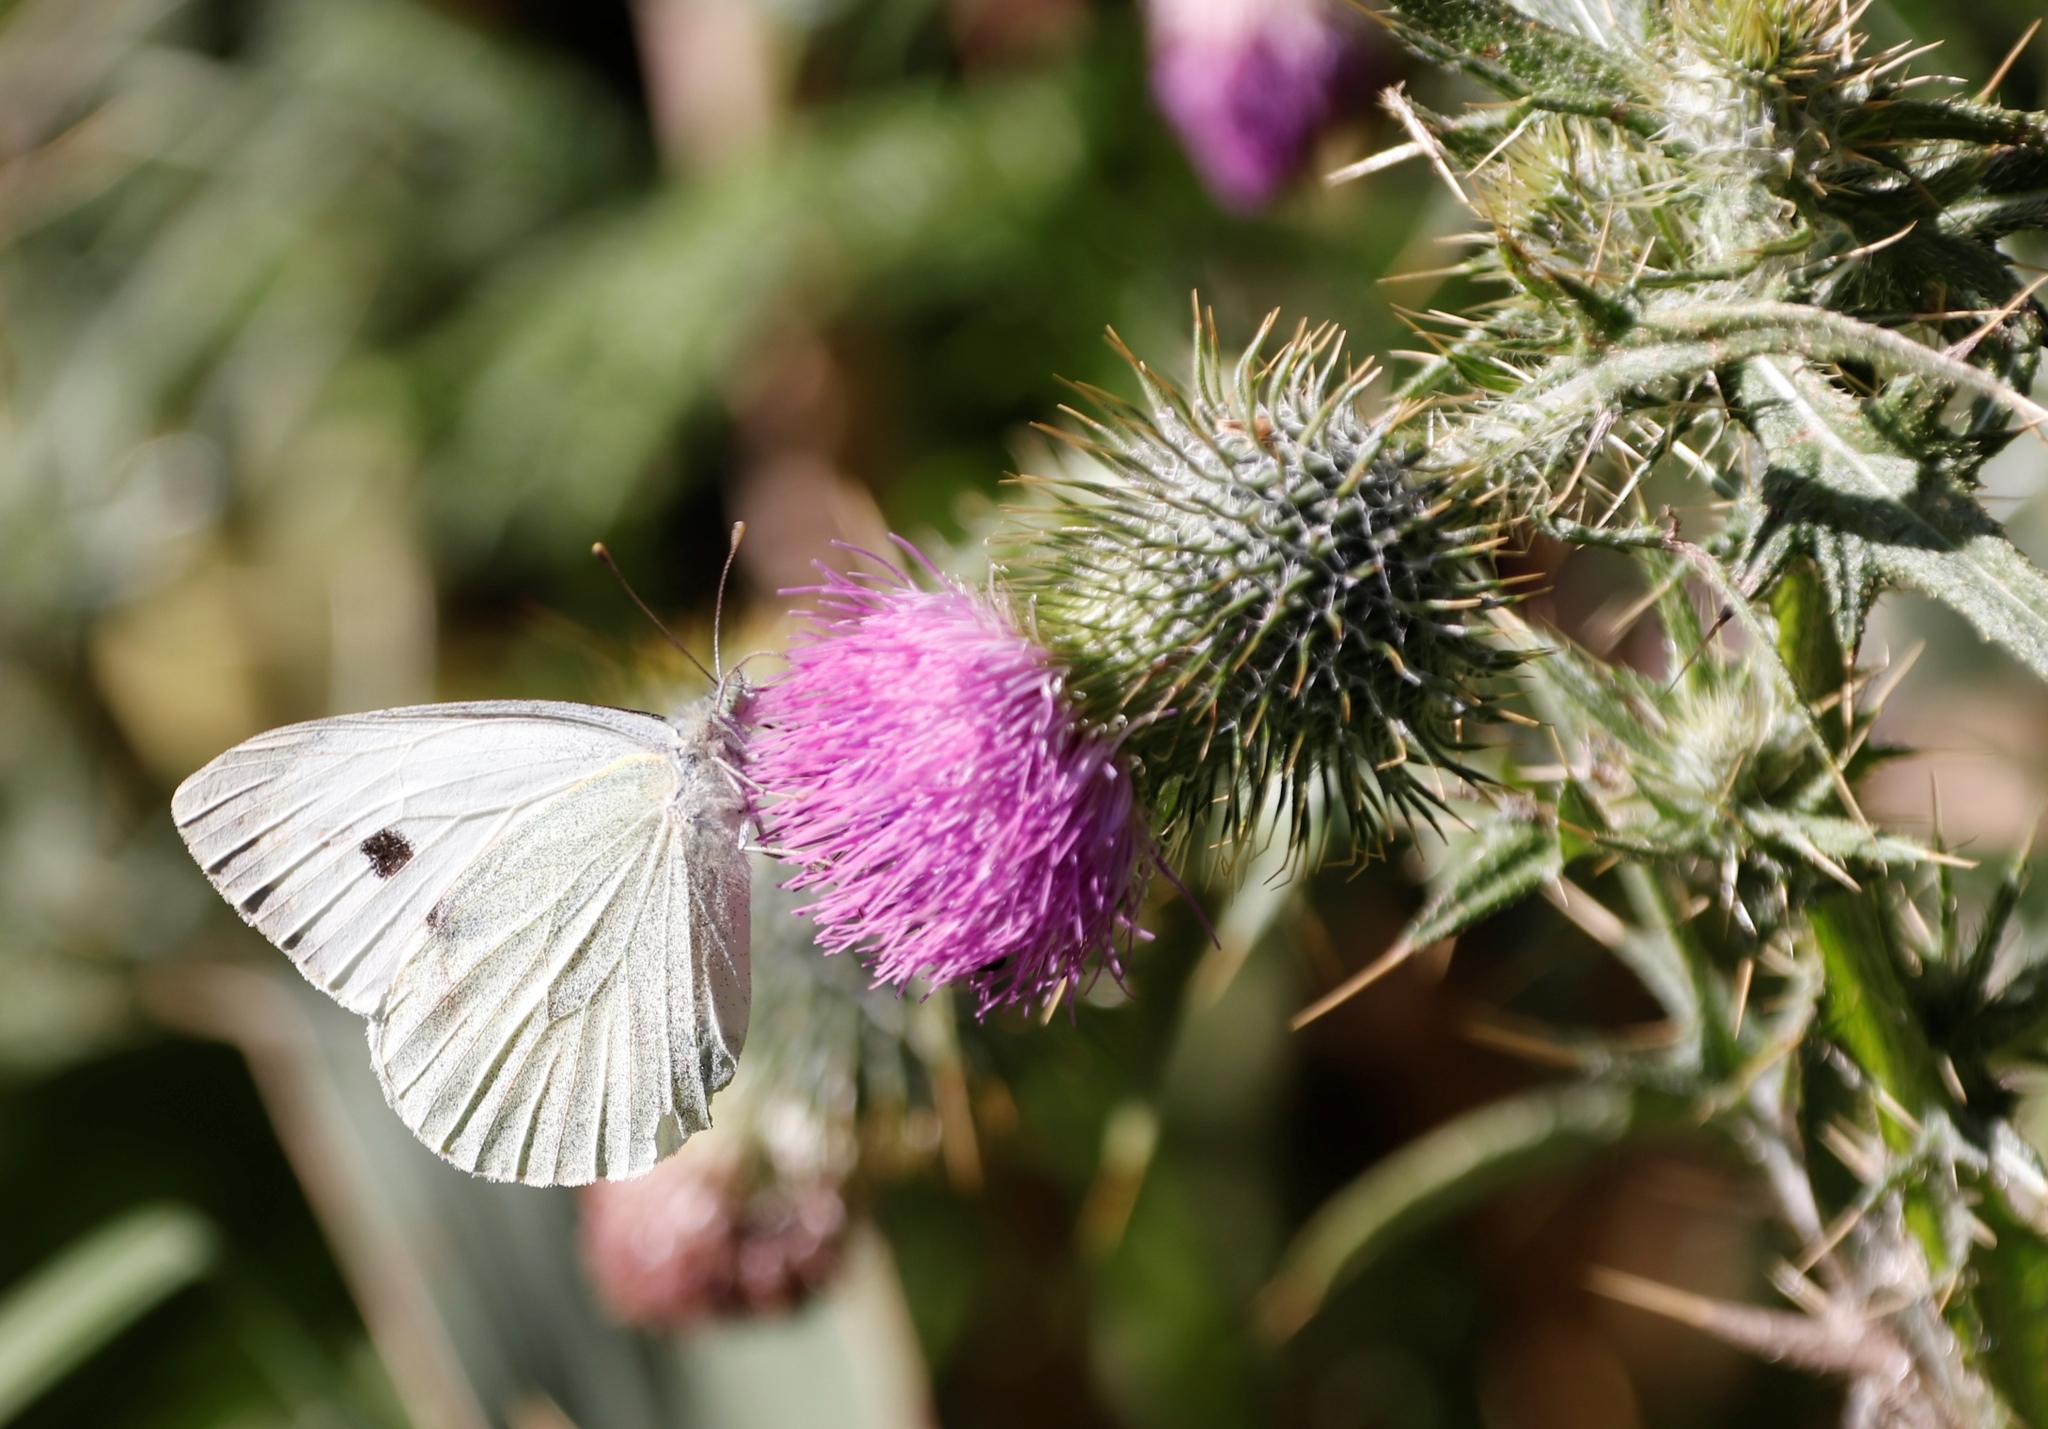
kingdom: Animalia
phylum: Arthropoda
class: Insecta
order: Lepidoptera
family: Pieridae
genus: Pieris
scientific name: Pieris brassicae
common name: Large white
